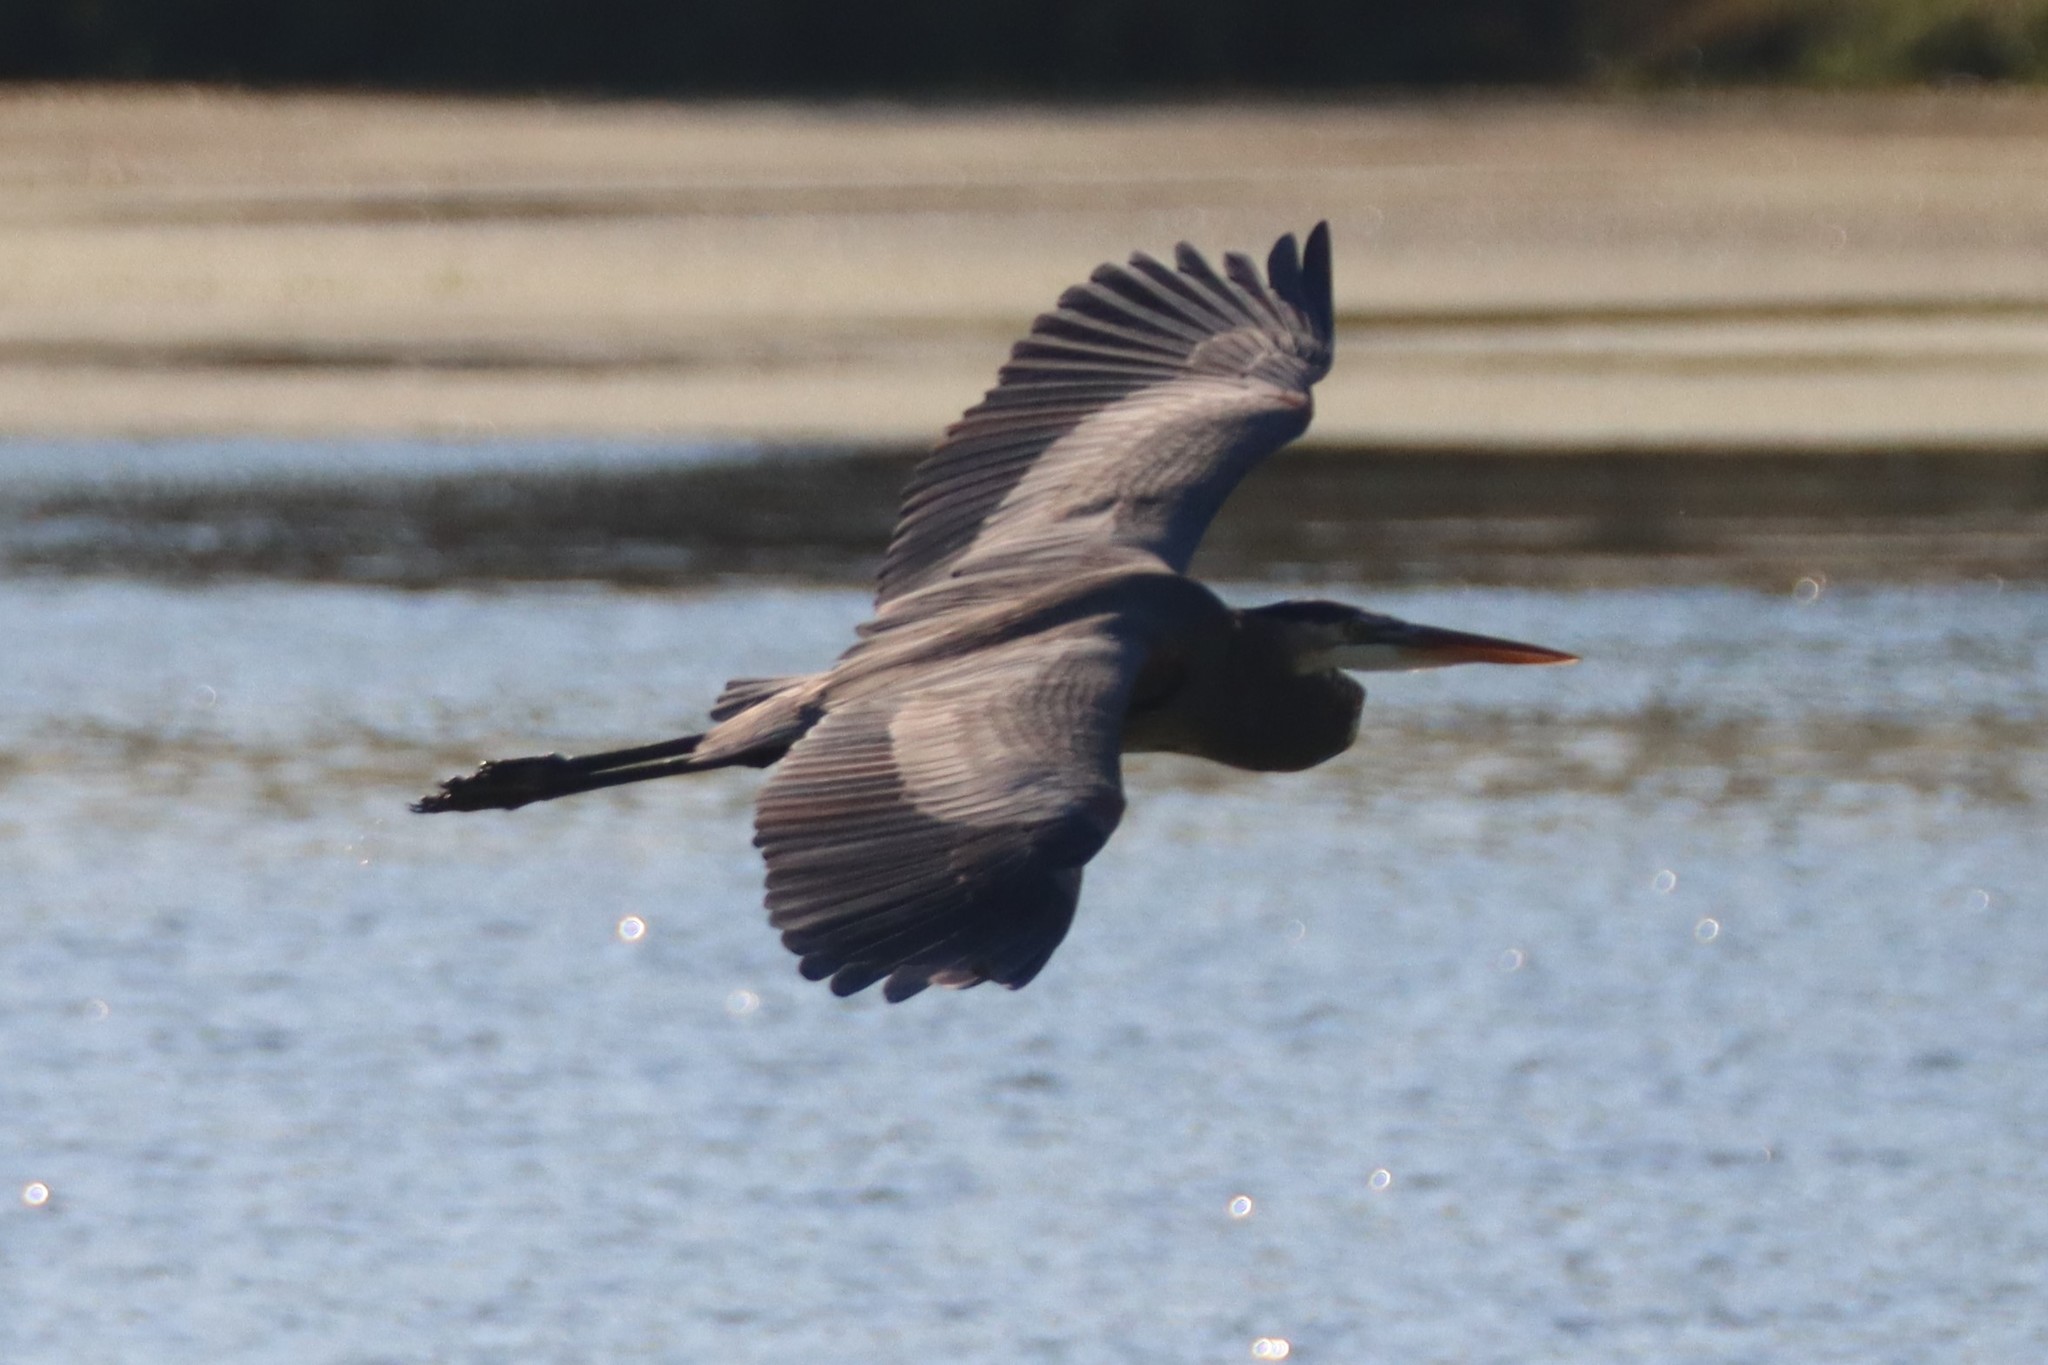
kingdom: Animalia
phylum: Chordata
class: Aves
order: Pelecaniformes
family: Ardeidae
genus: Ardea
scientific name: Ardea herodias
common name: Great blue heron
